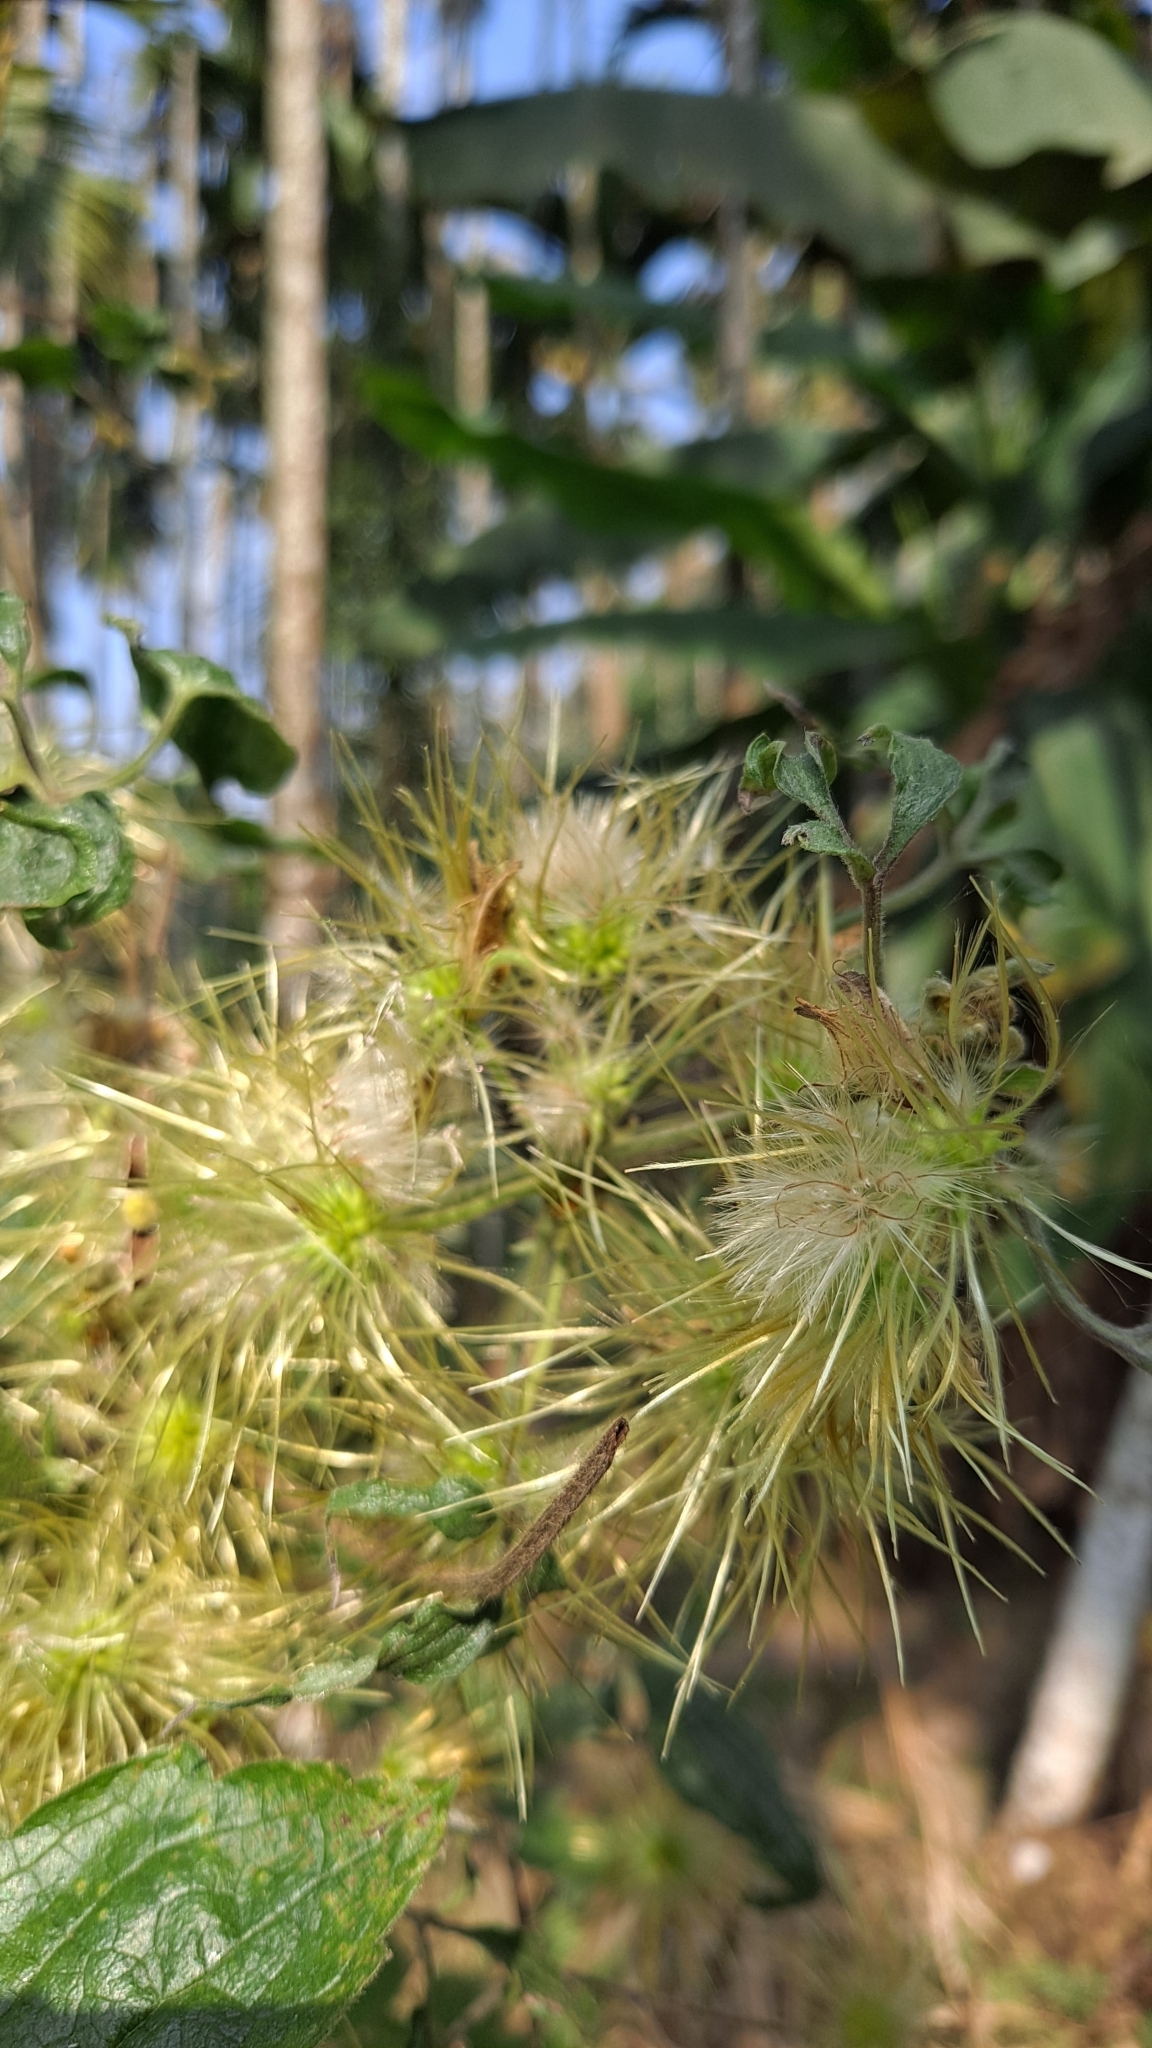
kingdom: Plantae
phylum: Tracheophyta
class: Magnoliopsida
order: Ranunculales
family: Ranunculaceae
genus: Clematis
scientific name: Clematis leschenaultiana
